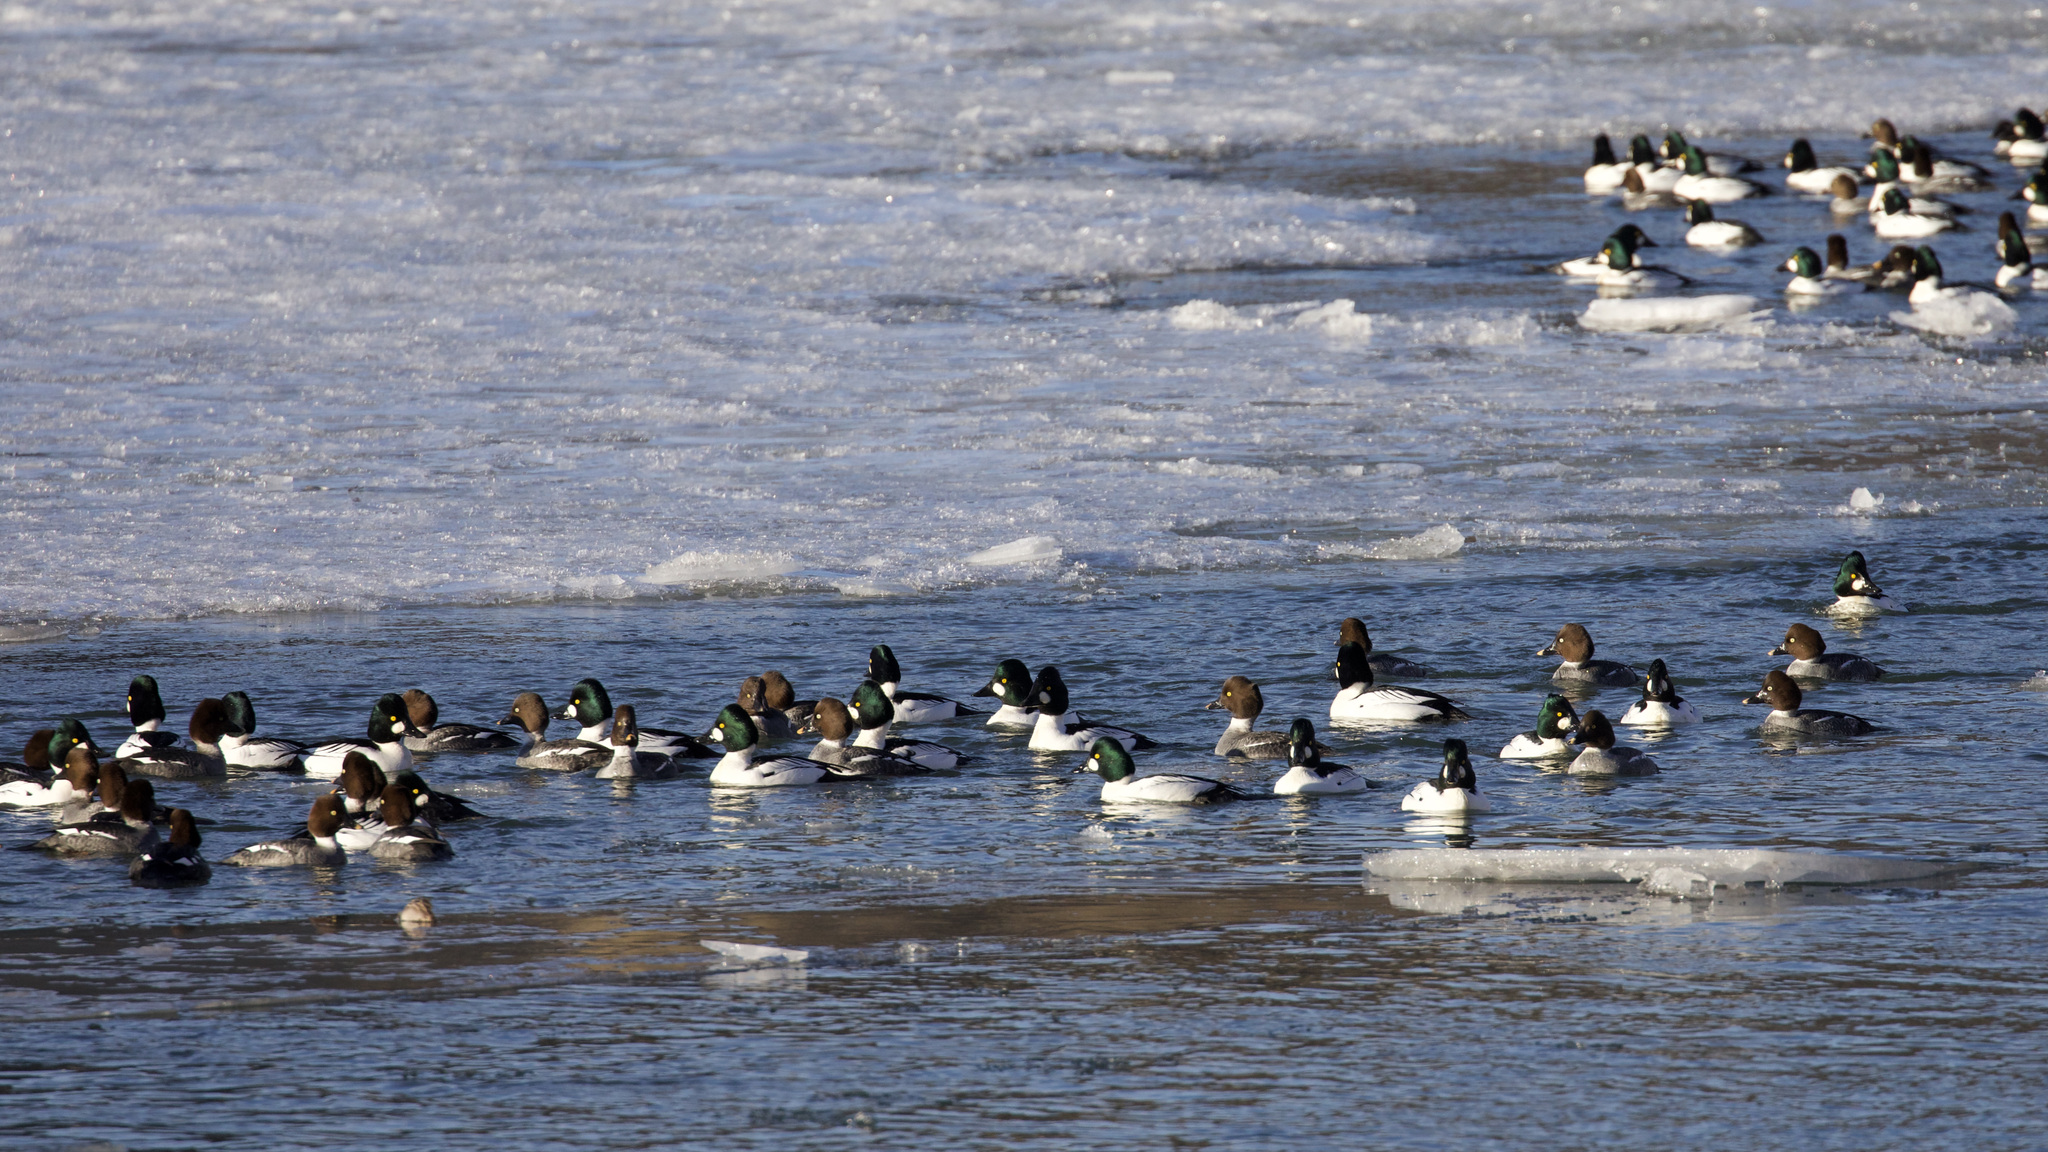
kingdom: Animalia
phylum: Chordata
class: Aves
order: Anseriformes
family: Anatidae
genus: Bucephala
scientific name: Bucephala clangula
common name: Common goldeneye
